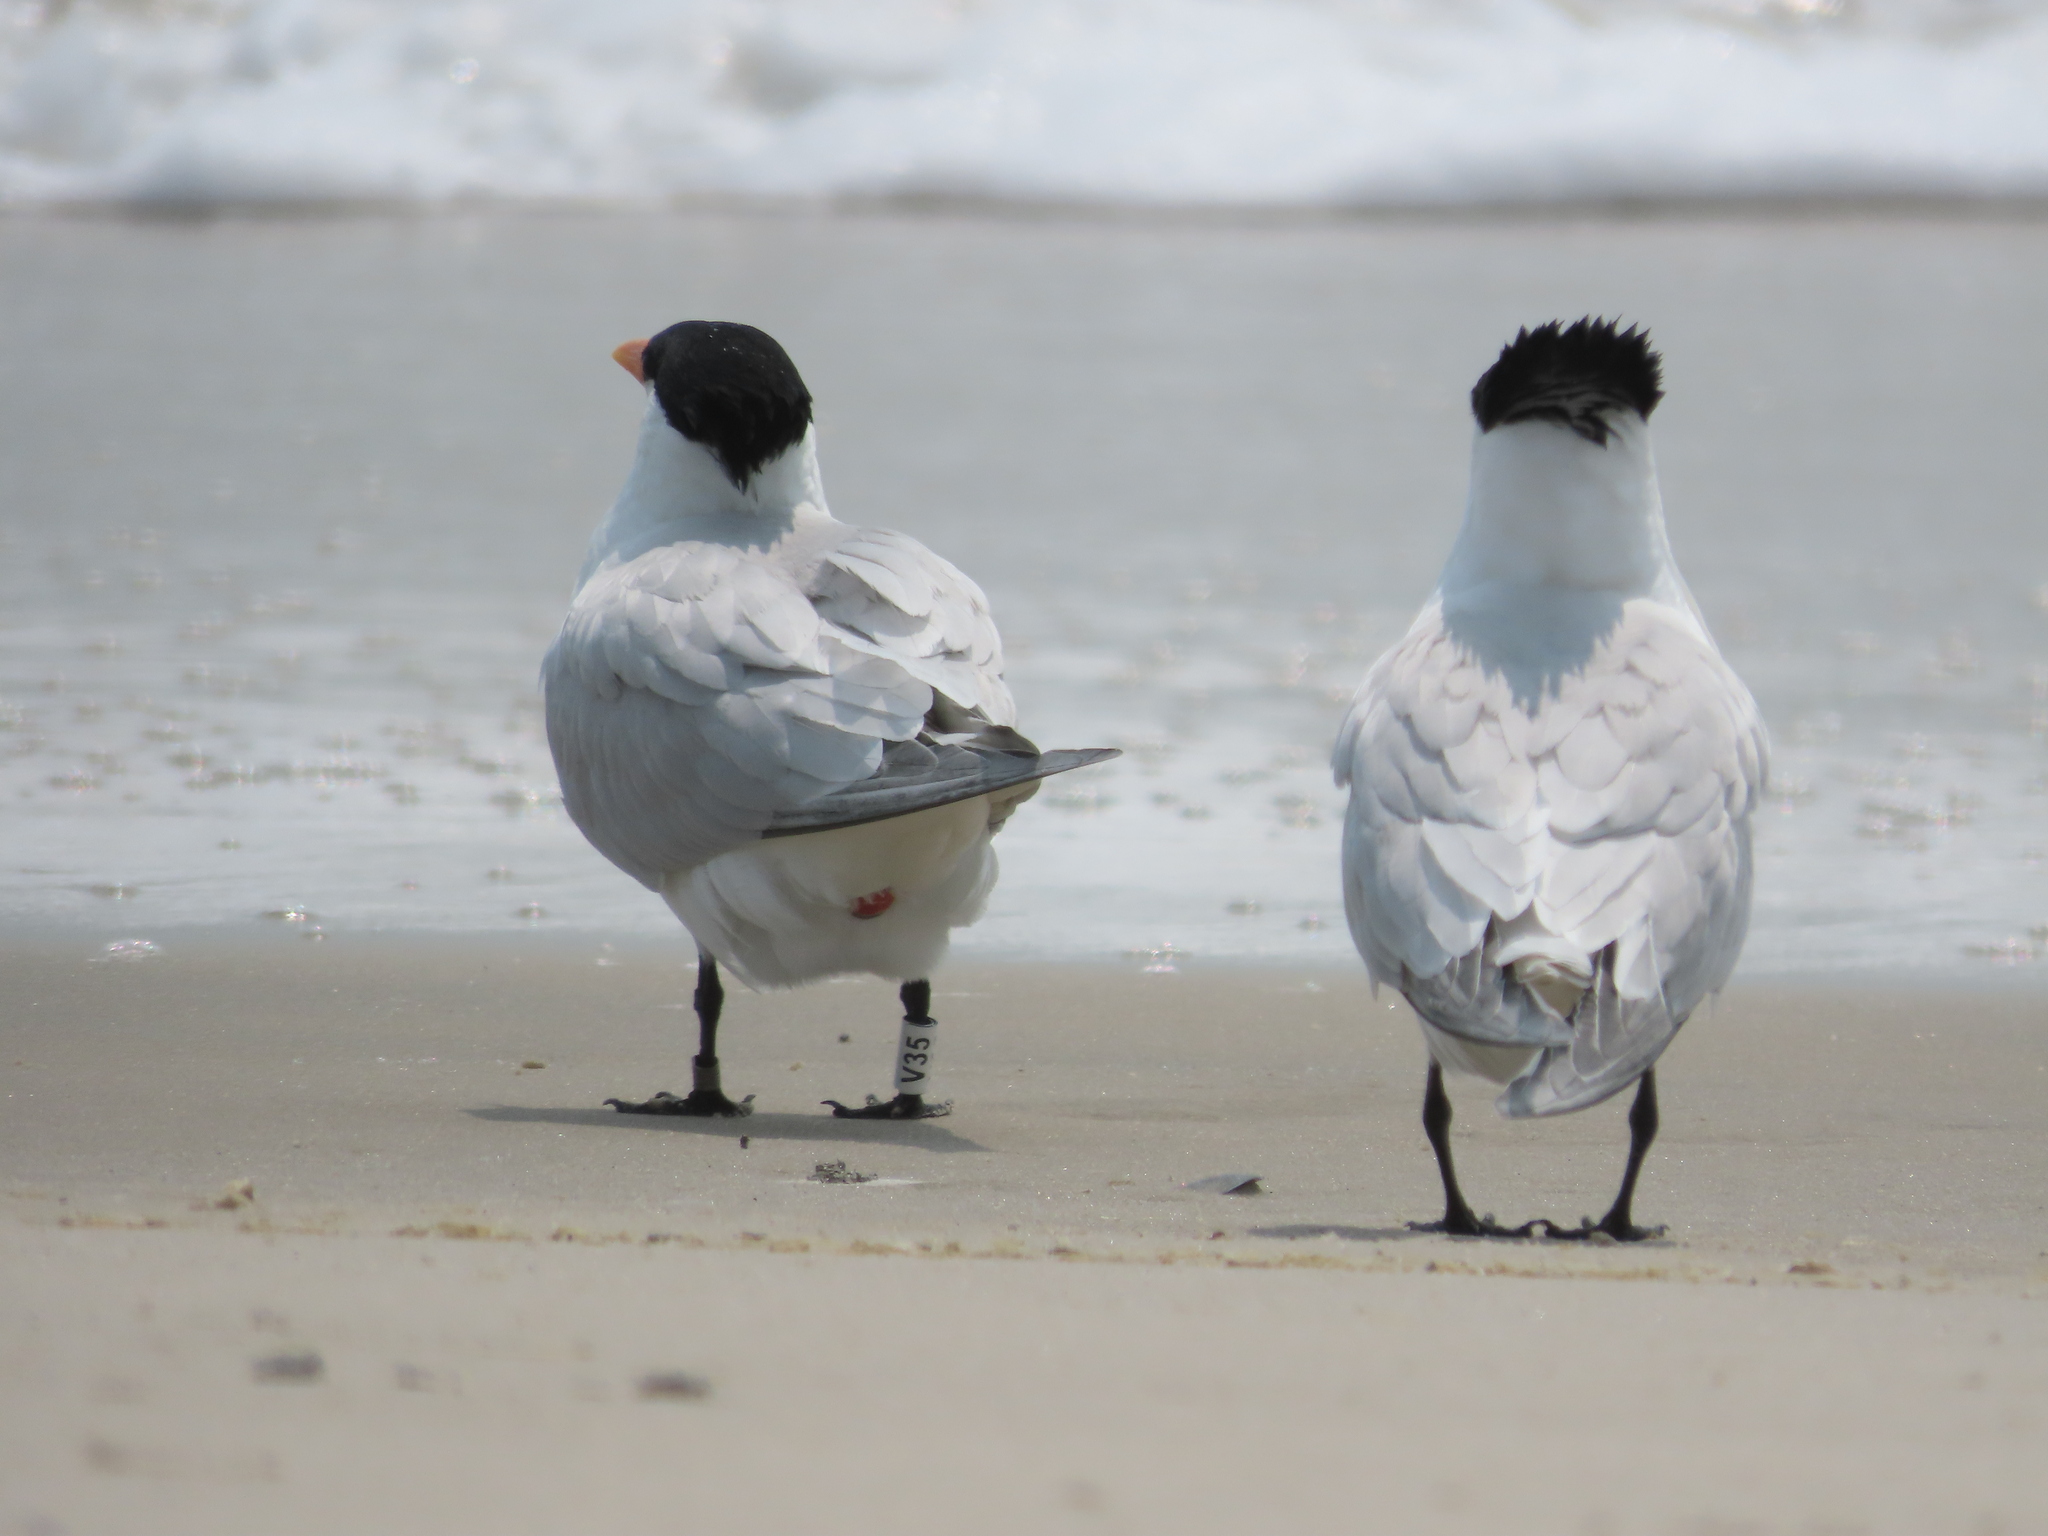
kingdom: Animalia
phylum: Chordata
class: Aves
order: Charadriiformes
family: Laridae
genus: Thalasseus
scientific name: Thalasseus maximus
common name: Royal tern
